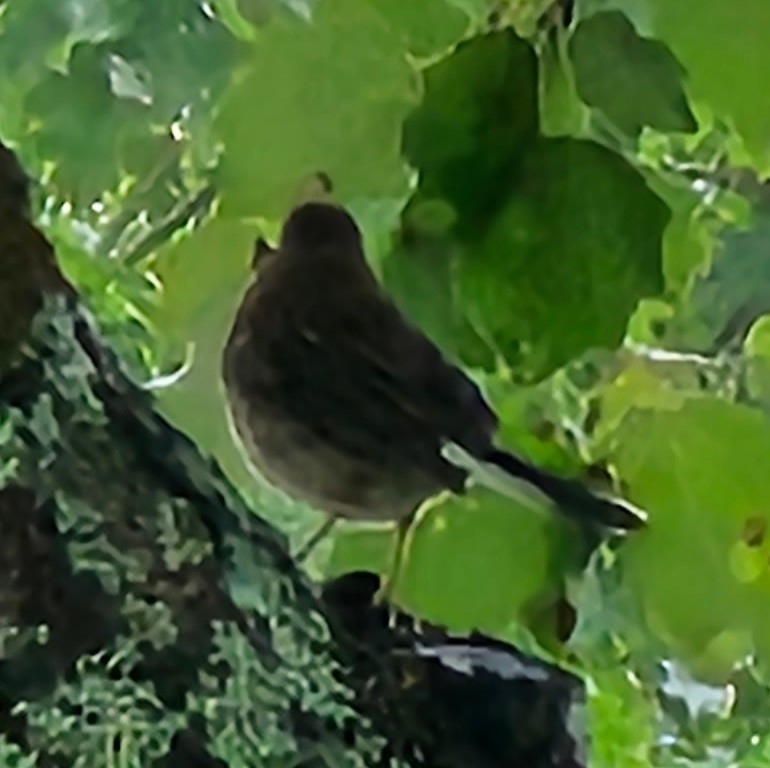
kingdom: Animalia
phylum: Chordata
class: Aves
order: Passeriformes
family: Passerellidae
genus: Junco
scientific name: Junco hyemalis
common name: Dark-eyed junco
